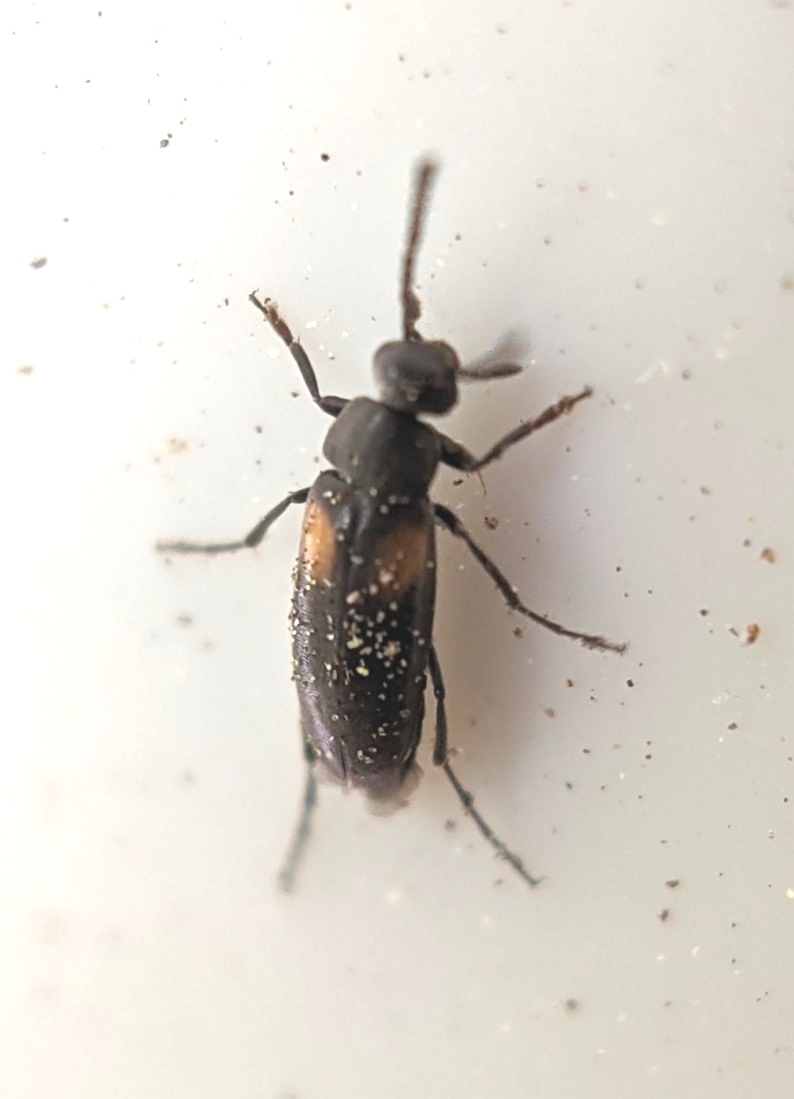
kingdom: Animalia
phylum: Arthropoda
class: Insecta
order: Coleoptera
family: Scraptiidae
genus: Anaspis
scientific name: Anaspis fasciata
